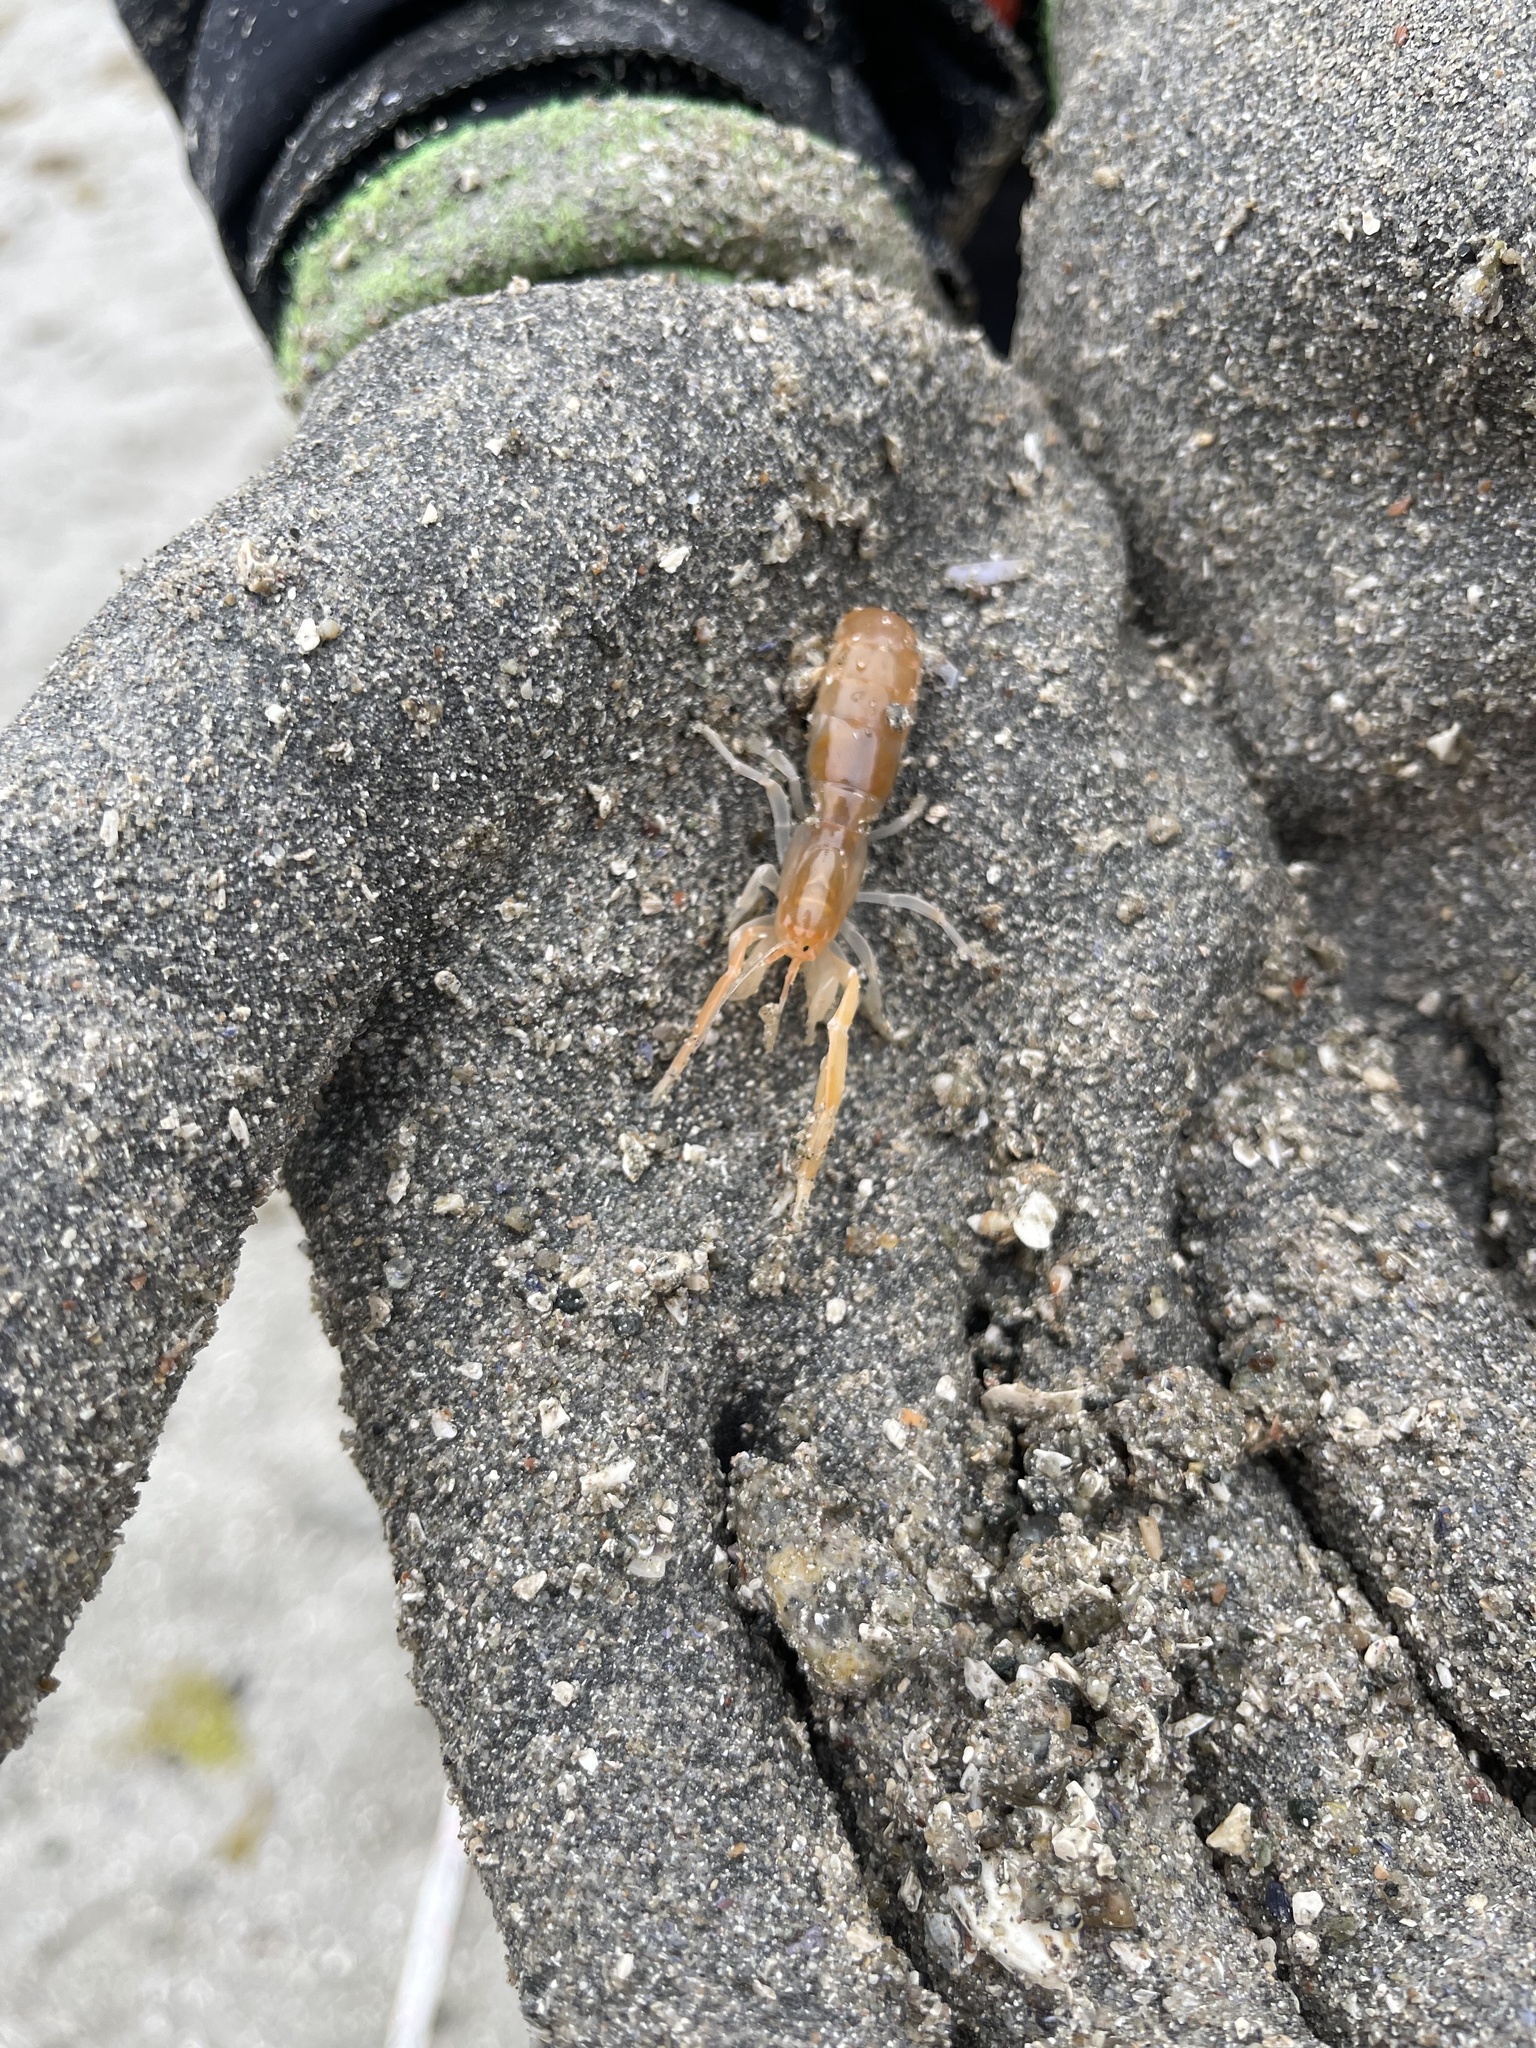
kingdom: Animalia
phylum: Arthropoda
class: Malacostraca
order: Decapoda
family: Callianassidae
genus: Neotrypaea
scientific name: Neotrypaea californiensis
